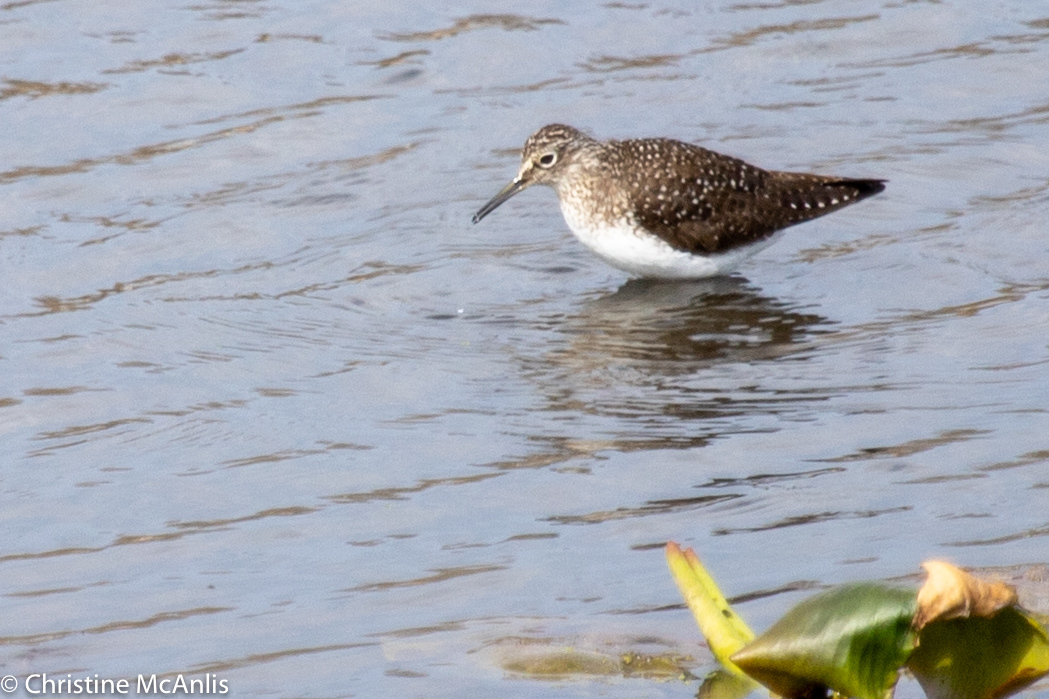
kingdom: Animalia
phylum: Chordata
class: Aves
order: Charadriiformes
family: Scolopacidae
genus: Tringa
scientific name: Tringa solitaria
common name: Solitary sandpiper
